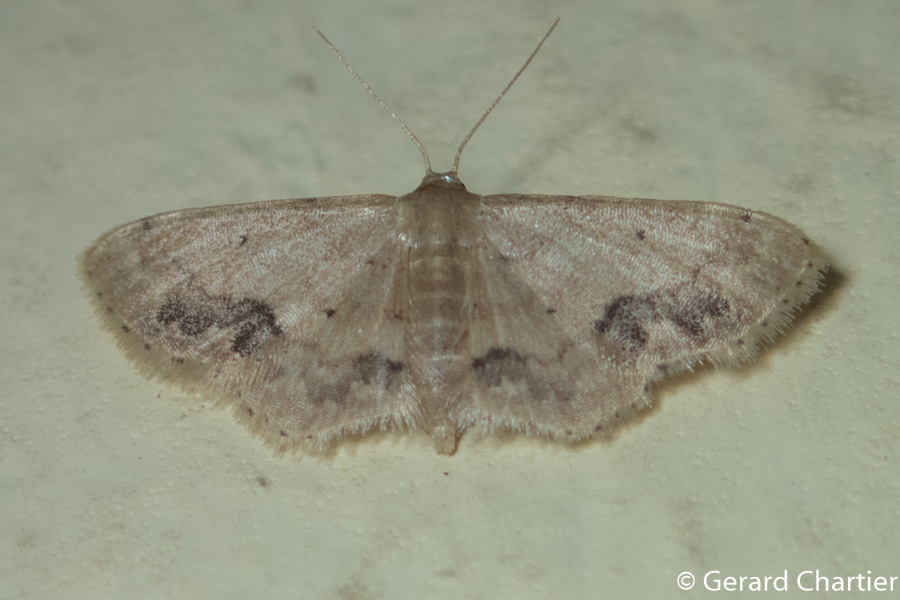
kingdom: Animalia
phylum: Arthropoda
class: Insecta
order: Lepidoptera
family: Geometridae
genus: Idaea
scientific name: Idaea chotaria
